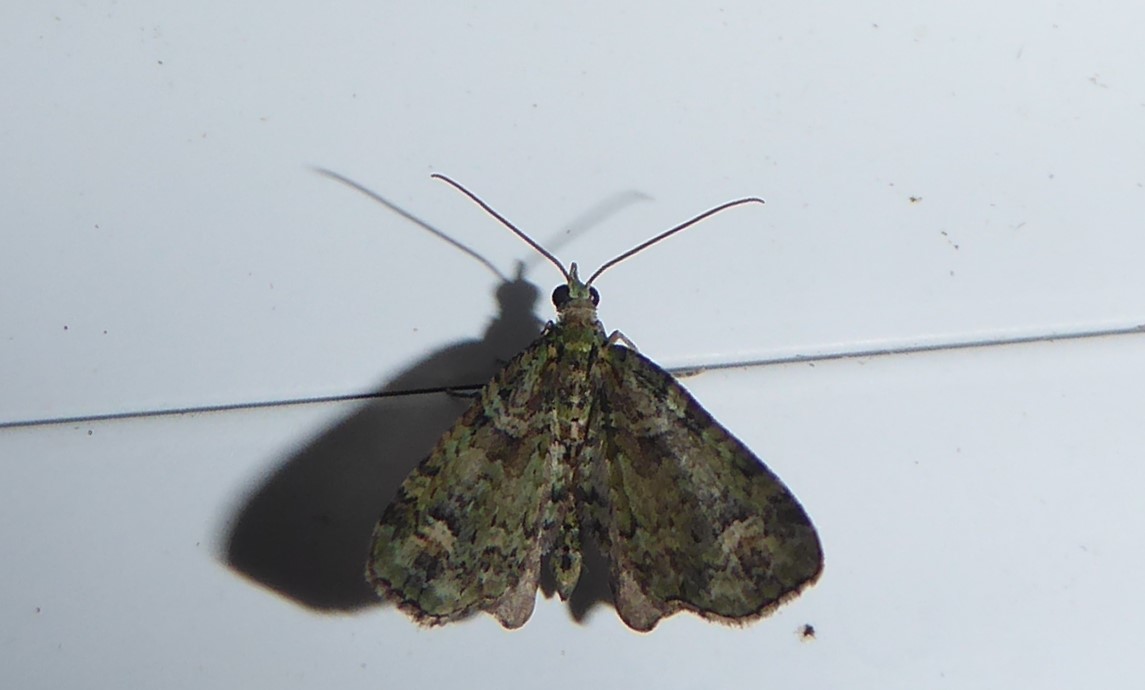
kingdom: Animalia
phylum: Arthropoda
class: Insecta
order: Lepidoptera
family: Geometridae
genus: Idaea
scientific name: Idaea mutanda
